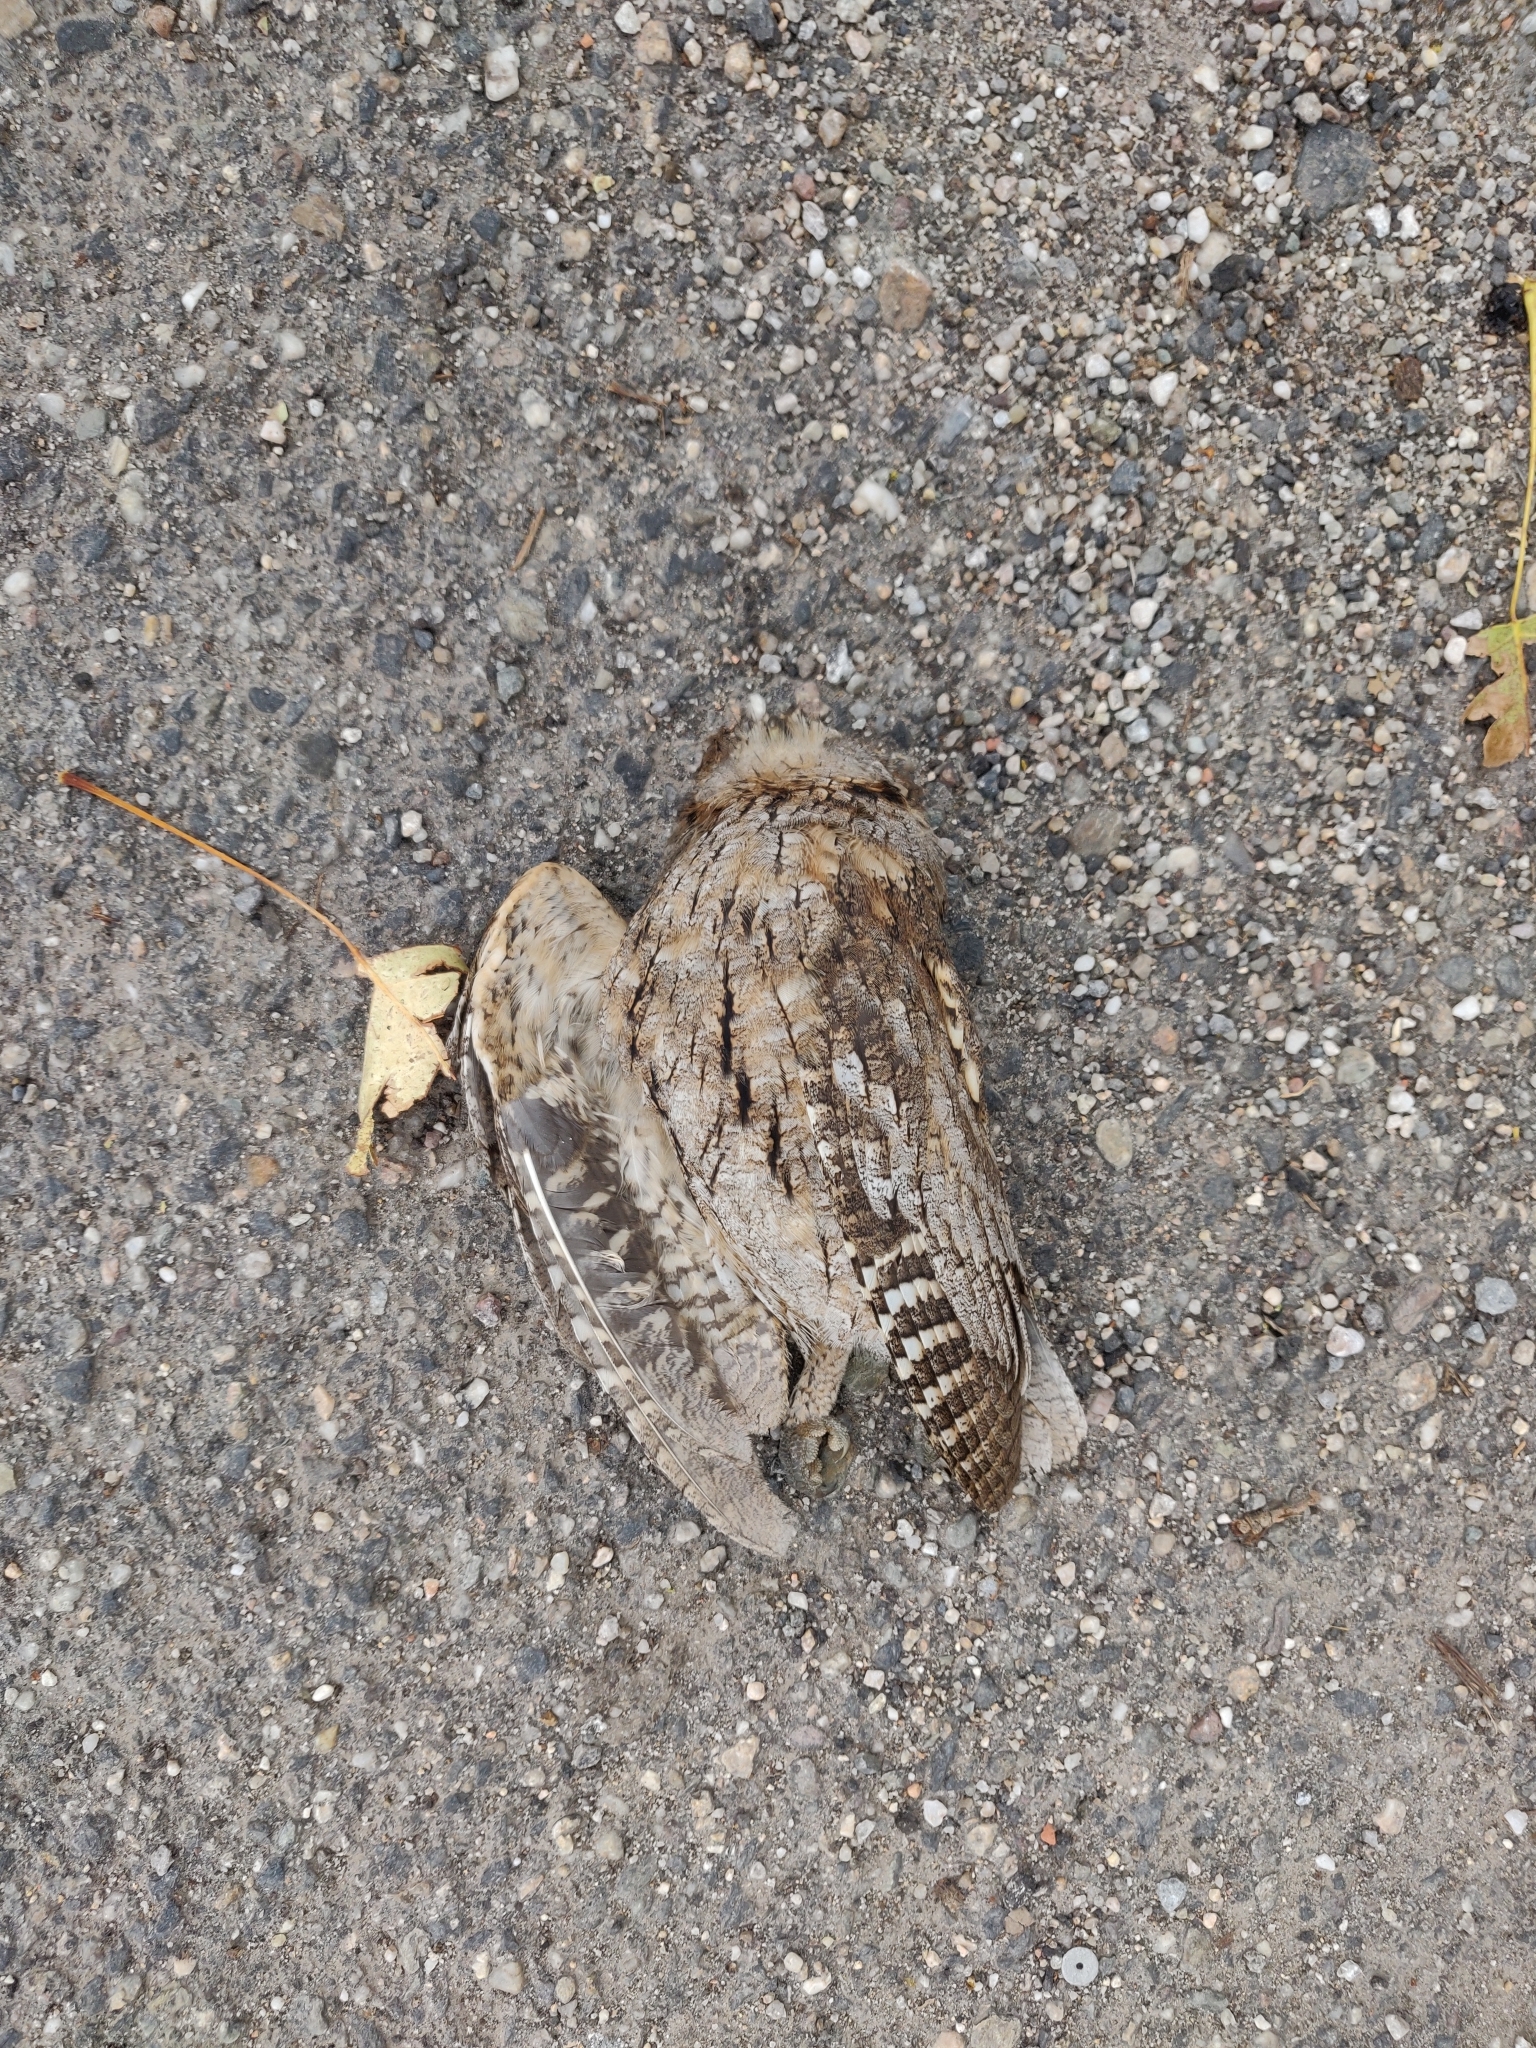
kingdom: Animalia
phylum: Chordata
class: Aves
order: Strigiformes
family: Strigidae
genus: Otus
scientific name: Otus scops
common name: Eurasian scops owl
